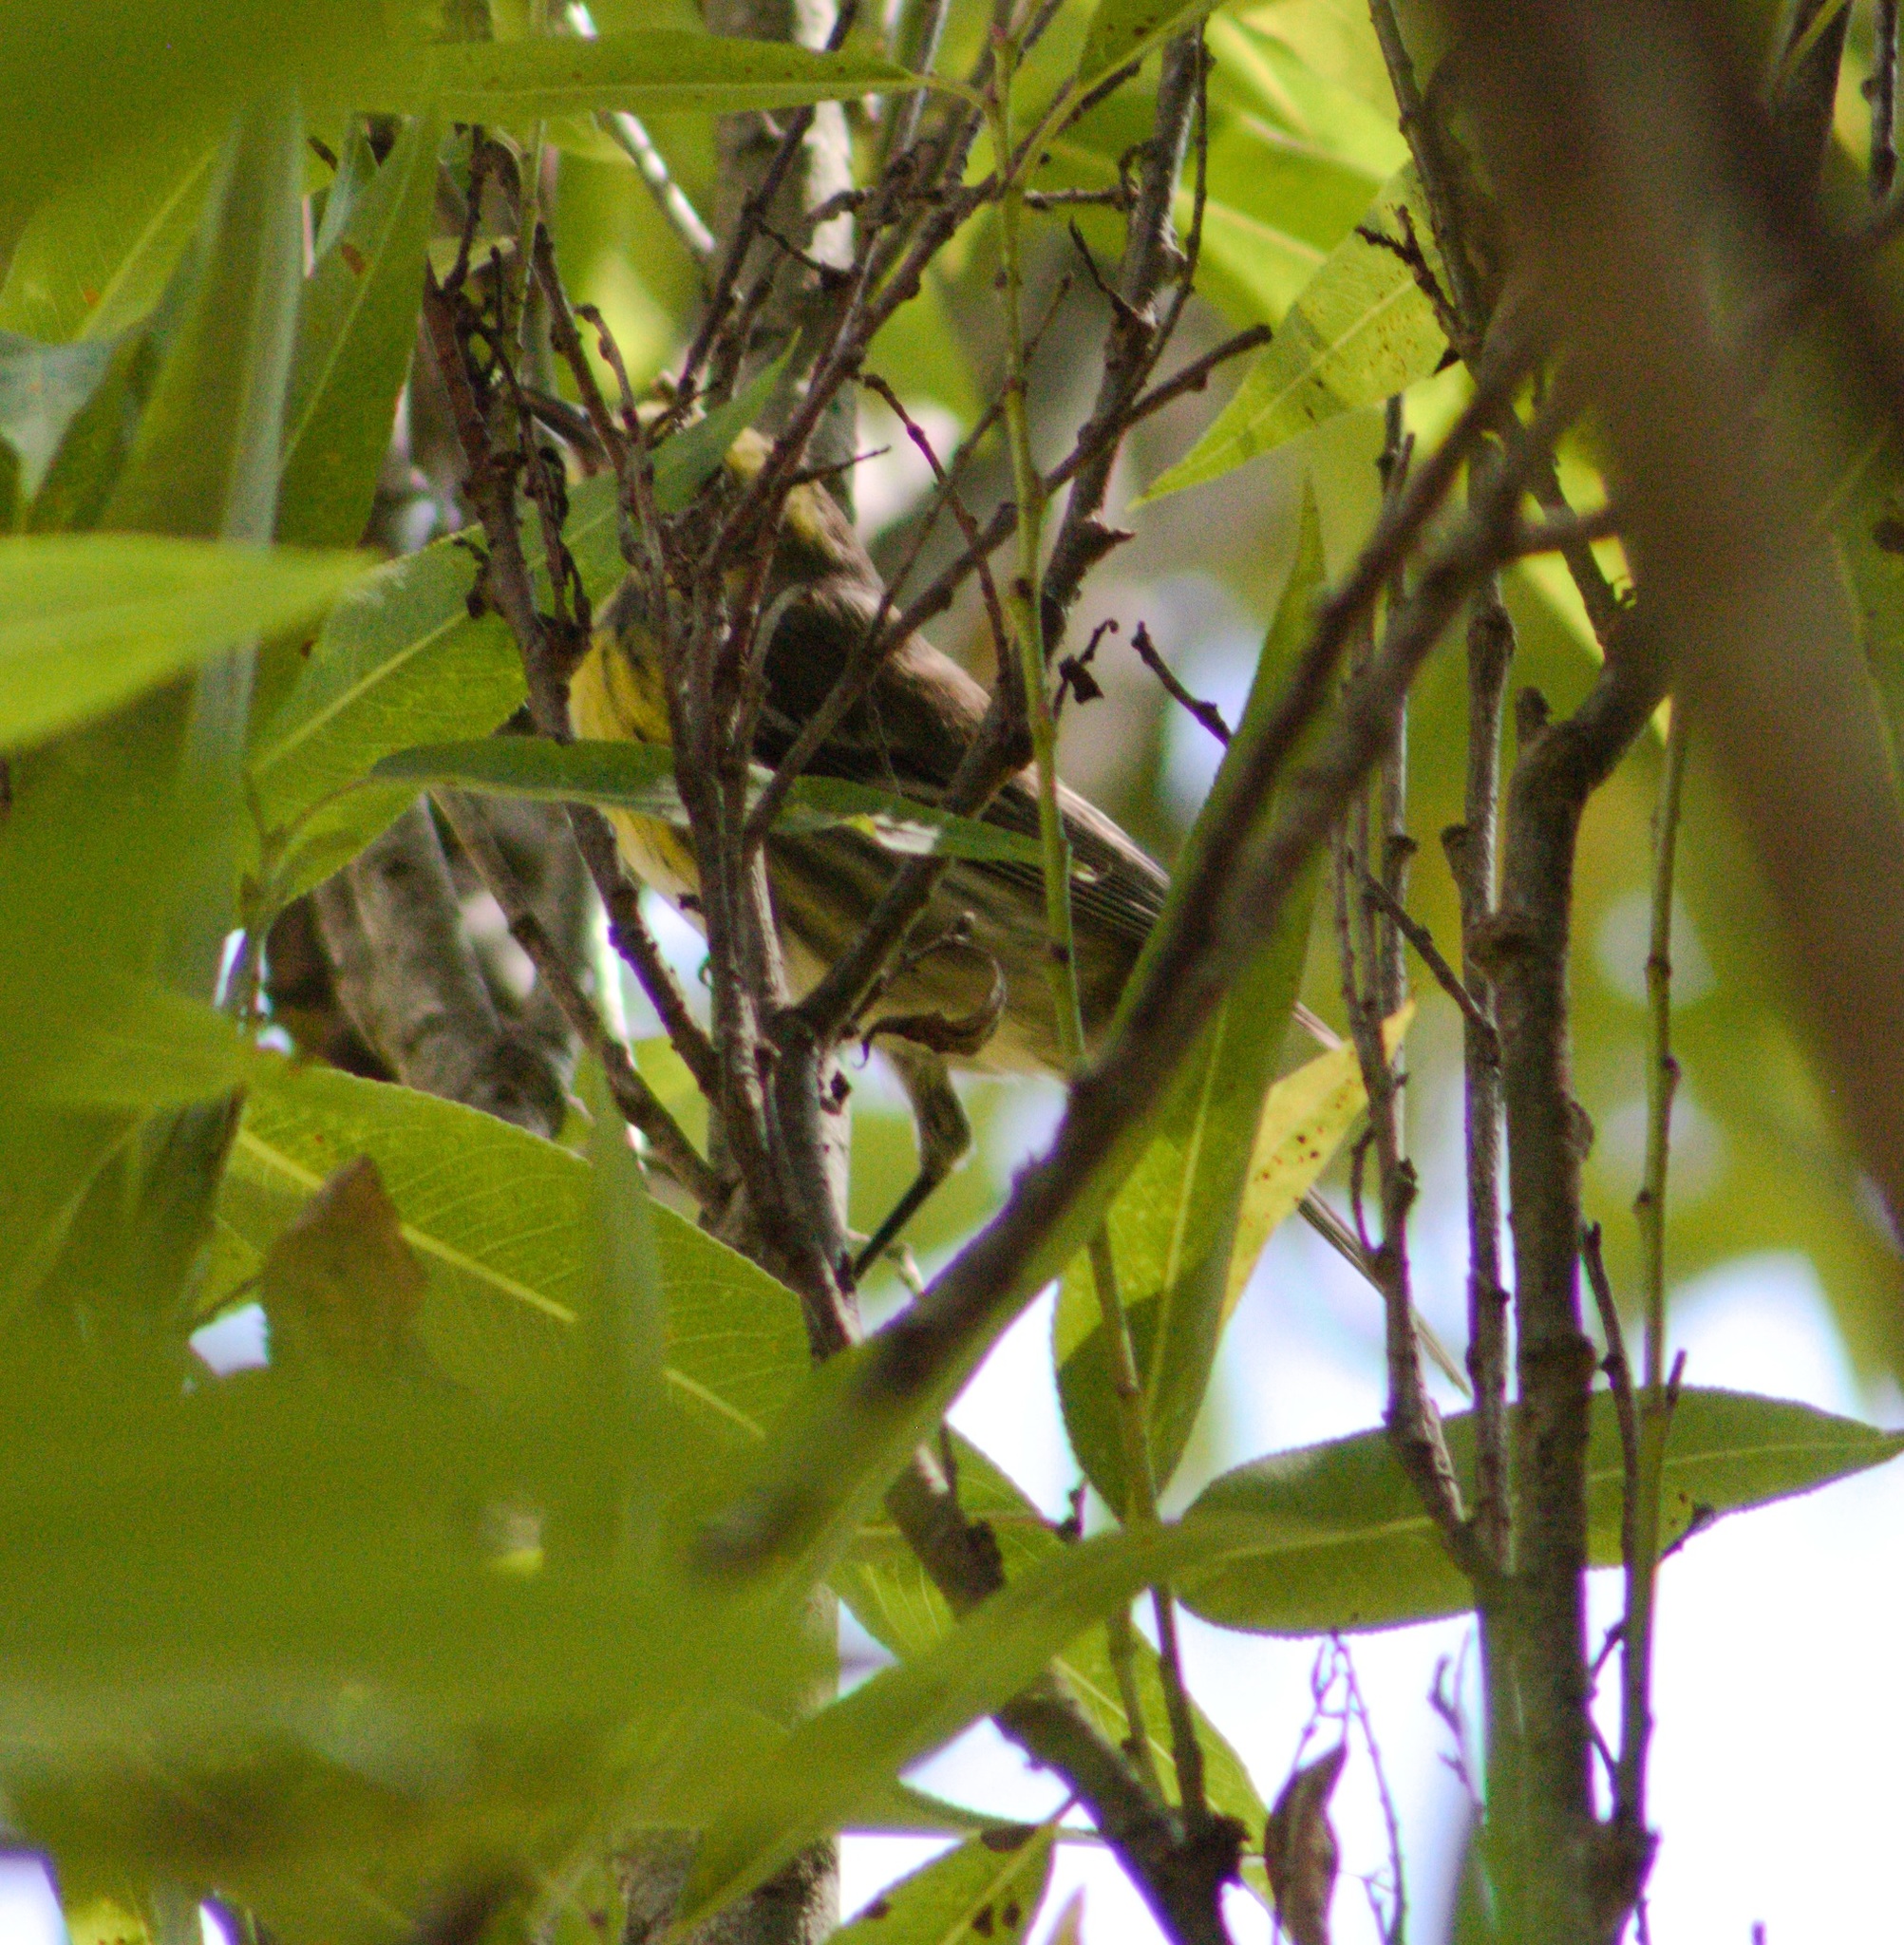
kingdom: Animalia
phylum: Chordata
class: Aves
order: Passeriformes
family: Parulidae
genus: Setophaga
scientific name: Setophaga townsendi
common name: Townsend's warbler
